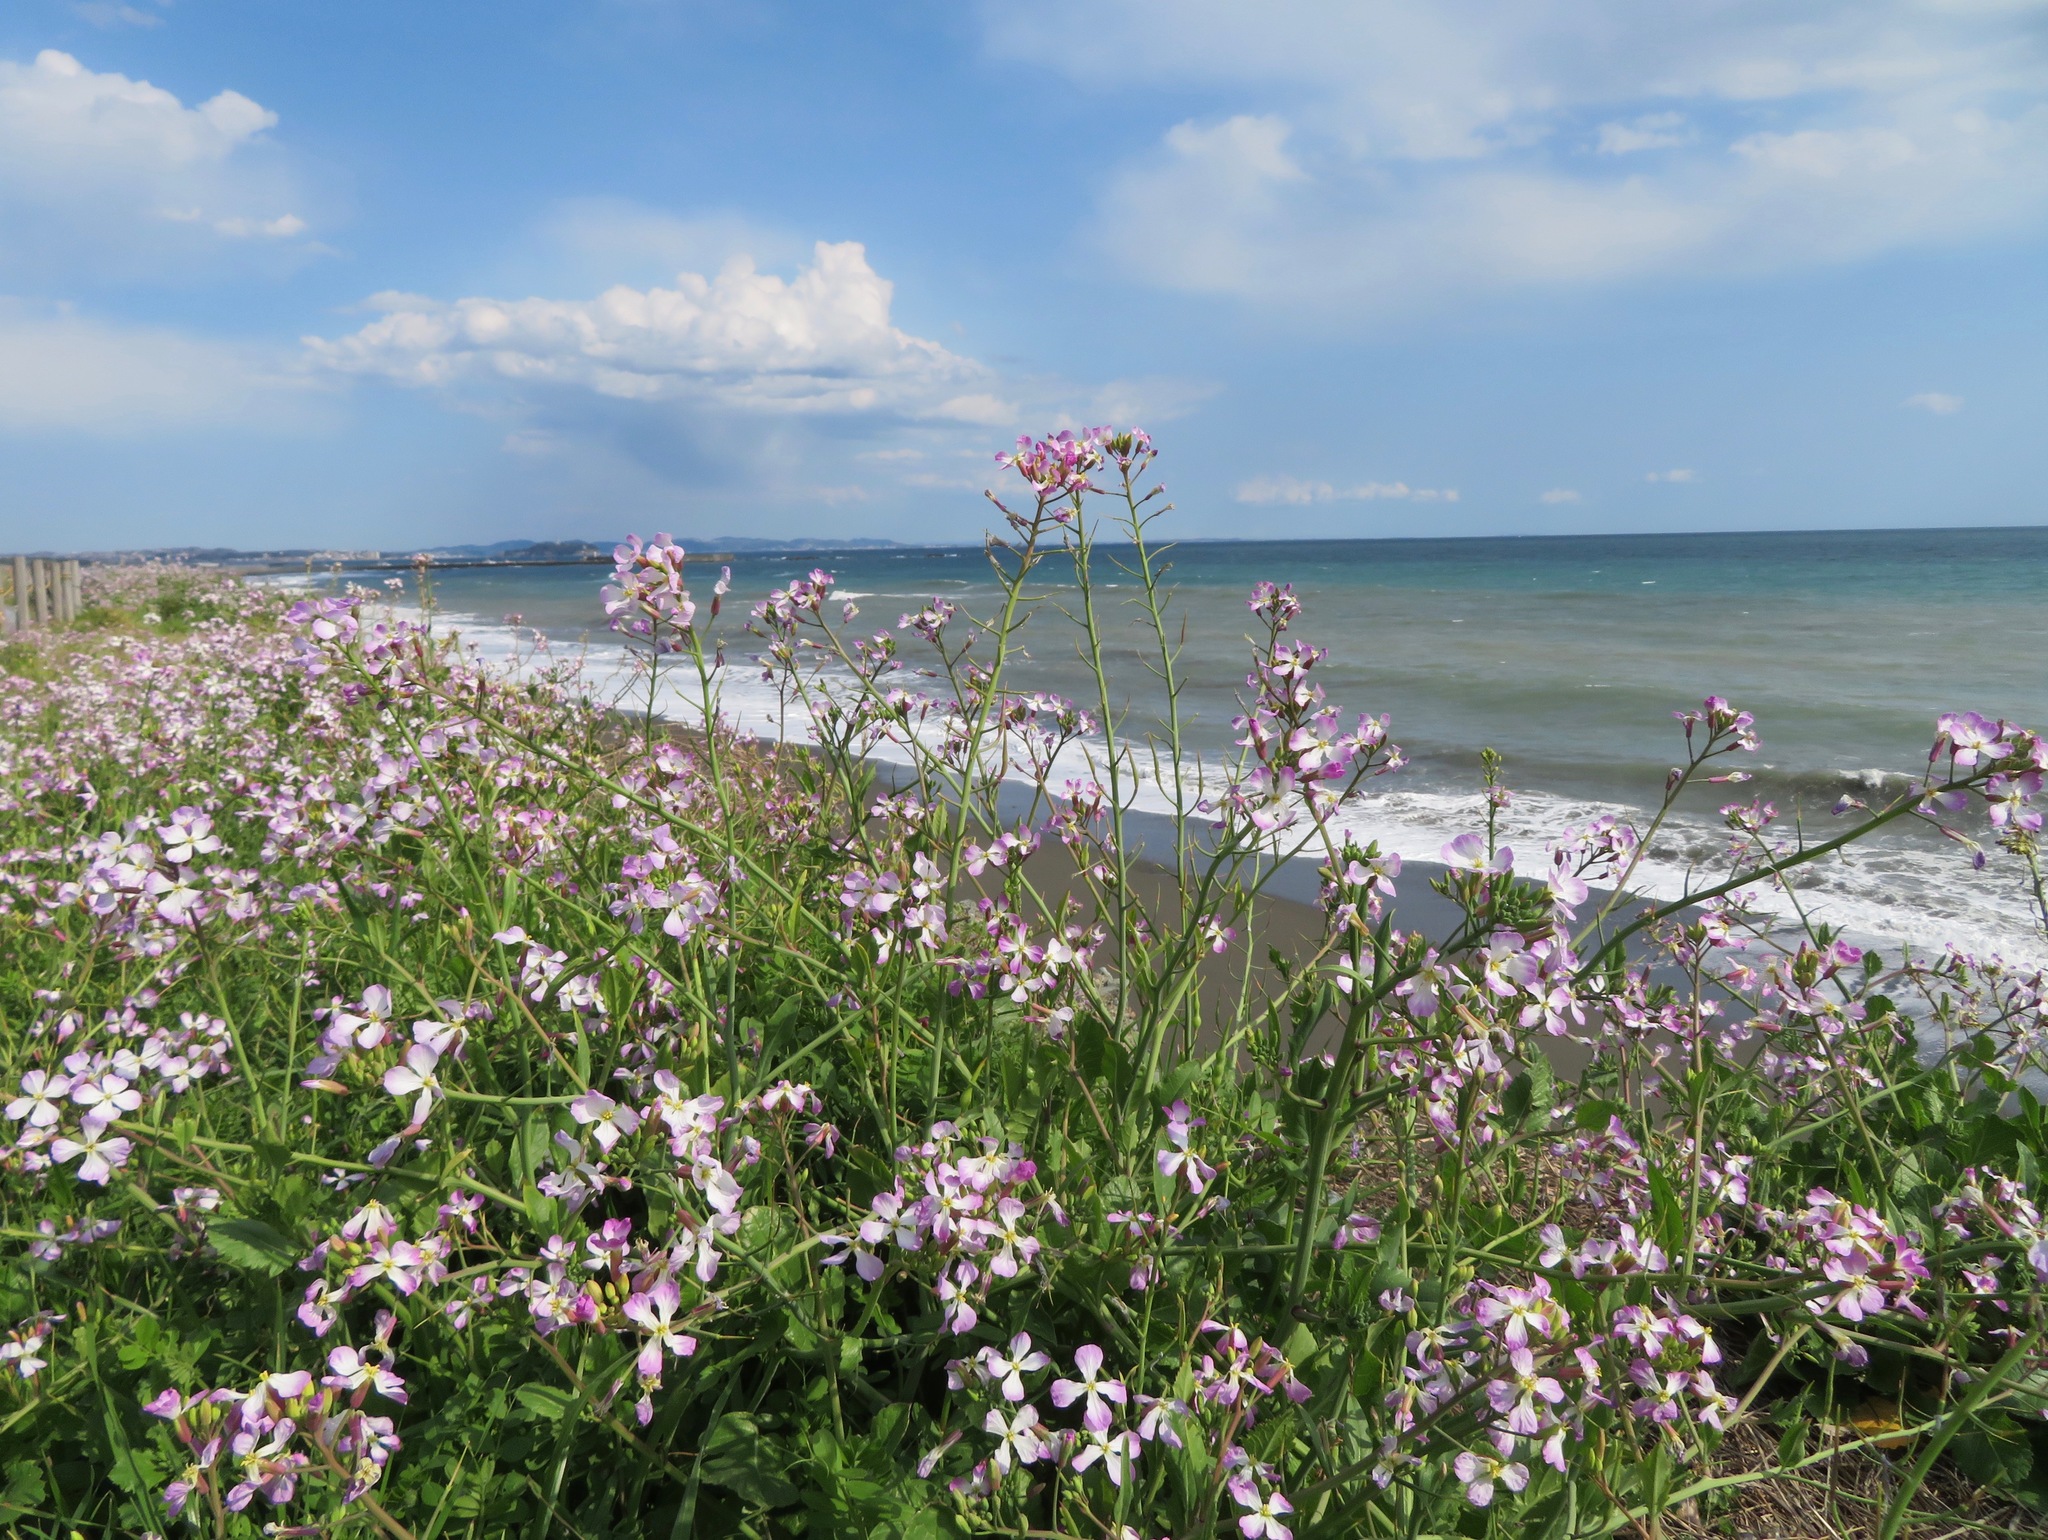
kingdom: Plantae
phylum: Tracheophyta
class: Magnoliopsida
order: Brassicales
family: Brassicaceae
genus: Raphanus
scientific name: Raphanus sativus
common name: Cultivated radish
